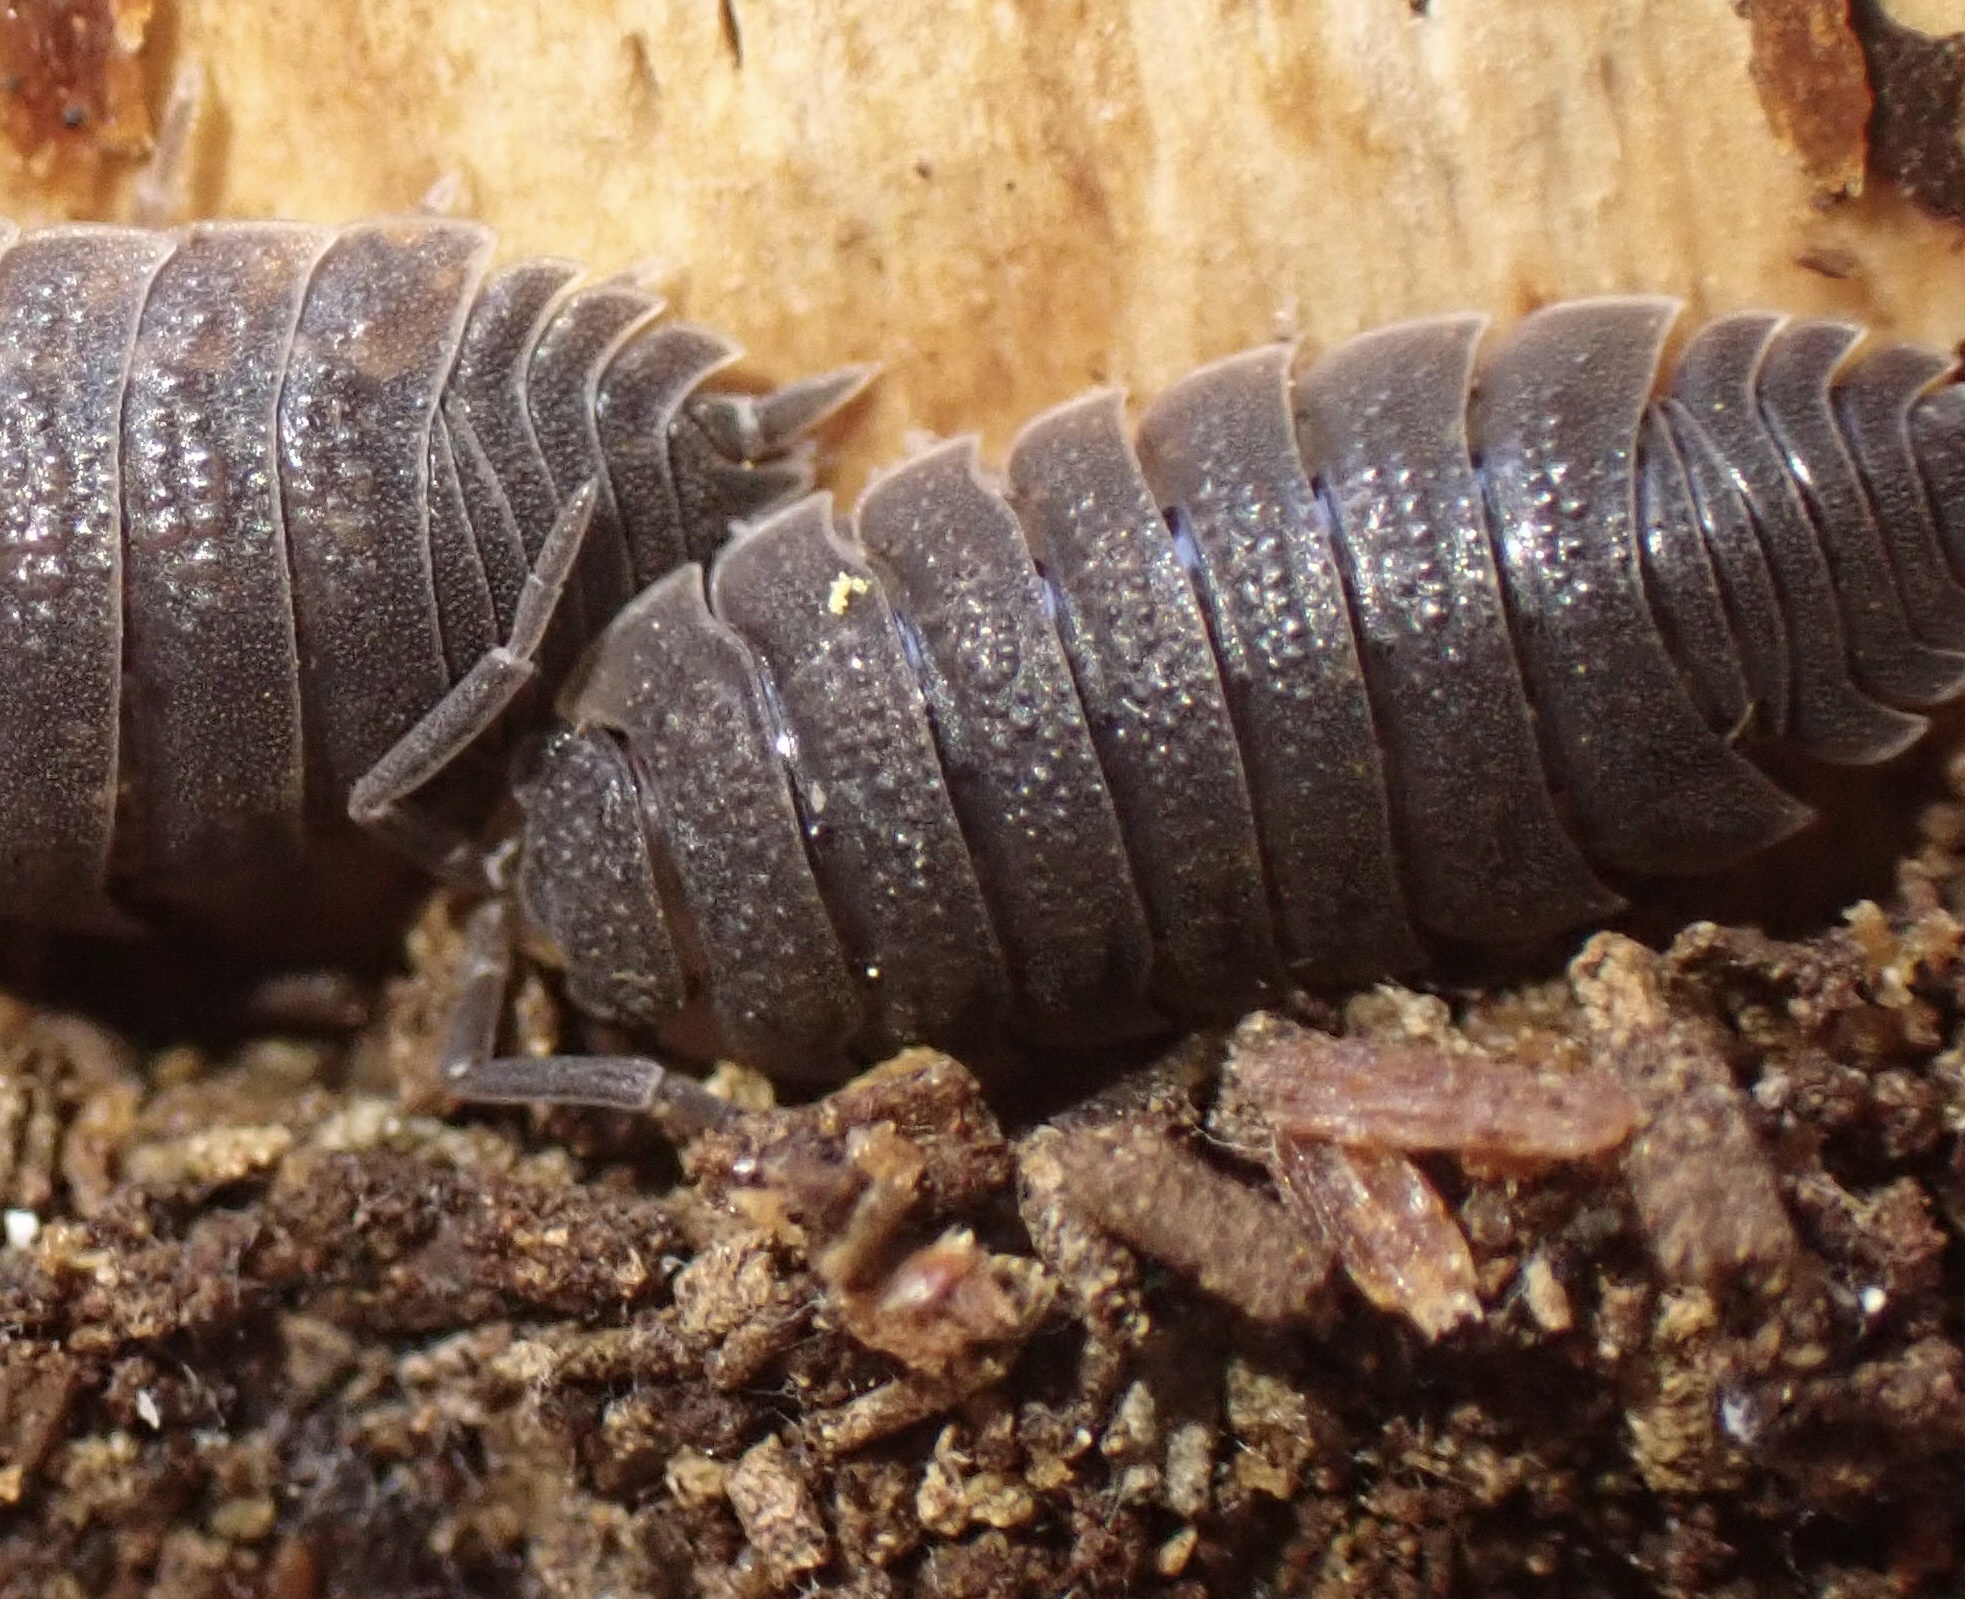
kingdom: Animalia
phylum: Arthropoda
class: Malacostraca
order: Isopoda
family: Porcellionidae
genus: Porcellio
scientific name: Porcellio scaber
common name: Common rough woodlouse
